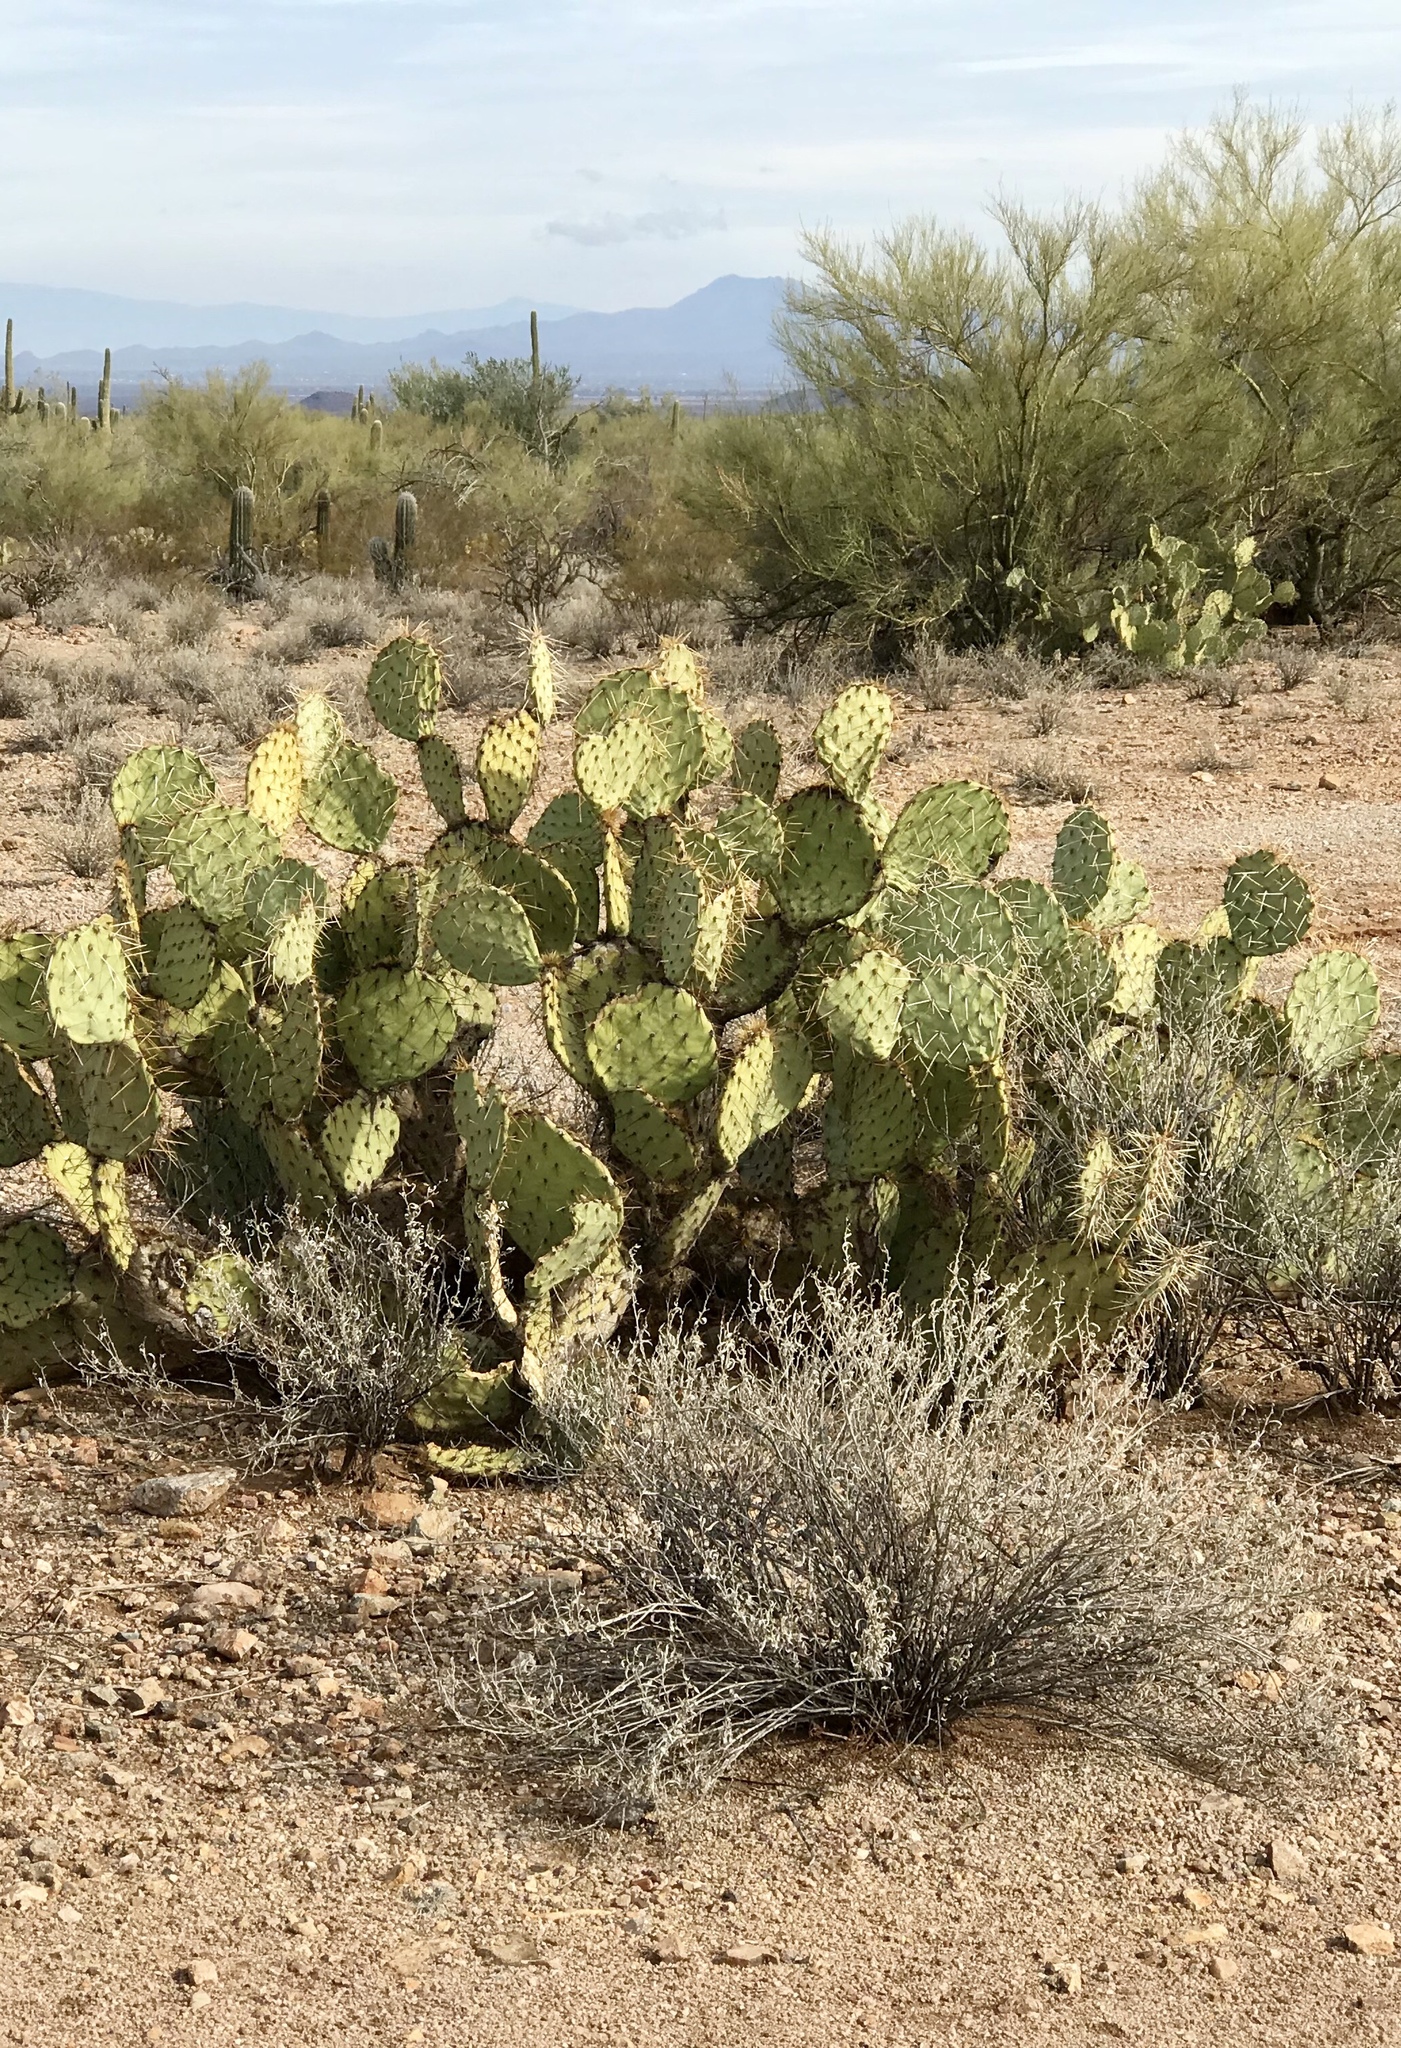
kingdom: Plantae
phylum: Tracheophyta
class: Magnoliopsida
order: Caryophyllales
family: Cactaceae
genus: Opuntia
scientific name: Opuntia engelmannii
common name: Cactus-apple
